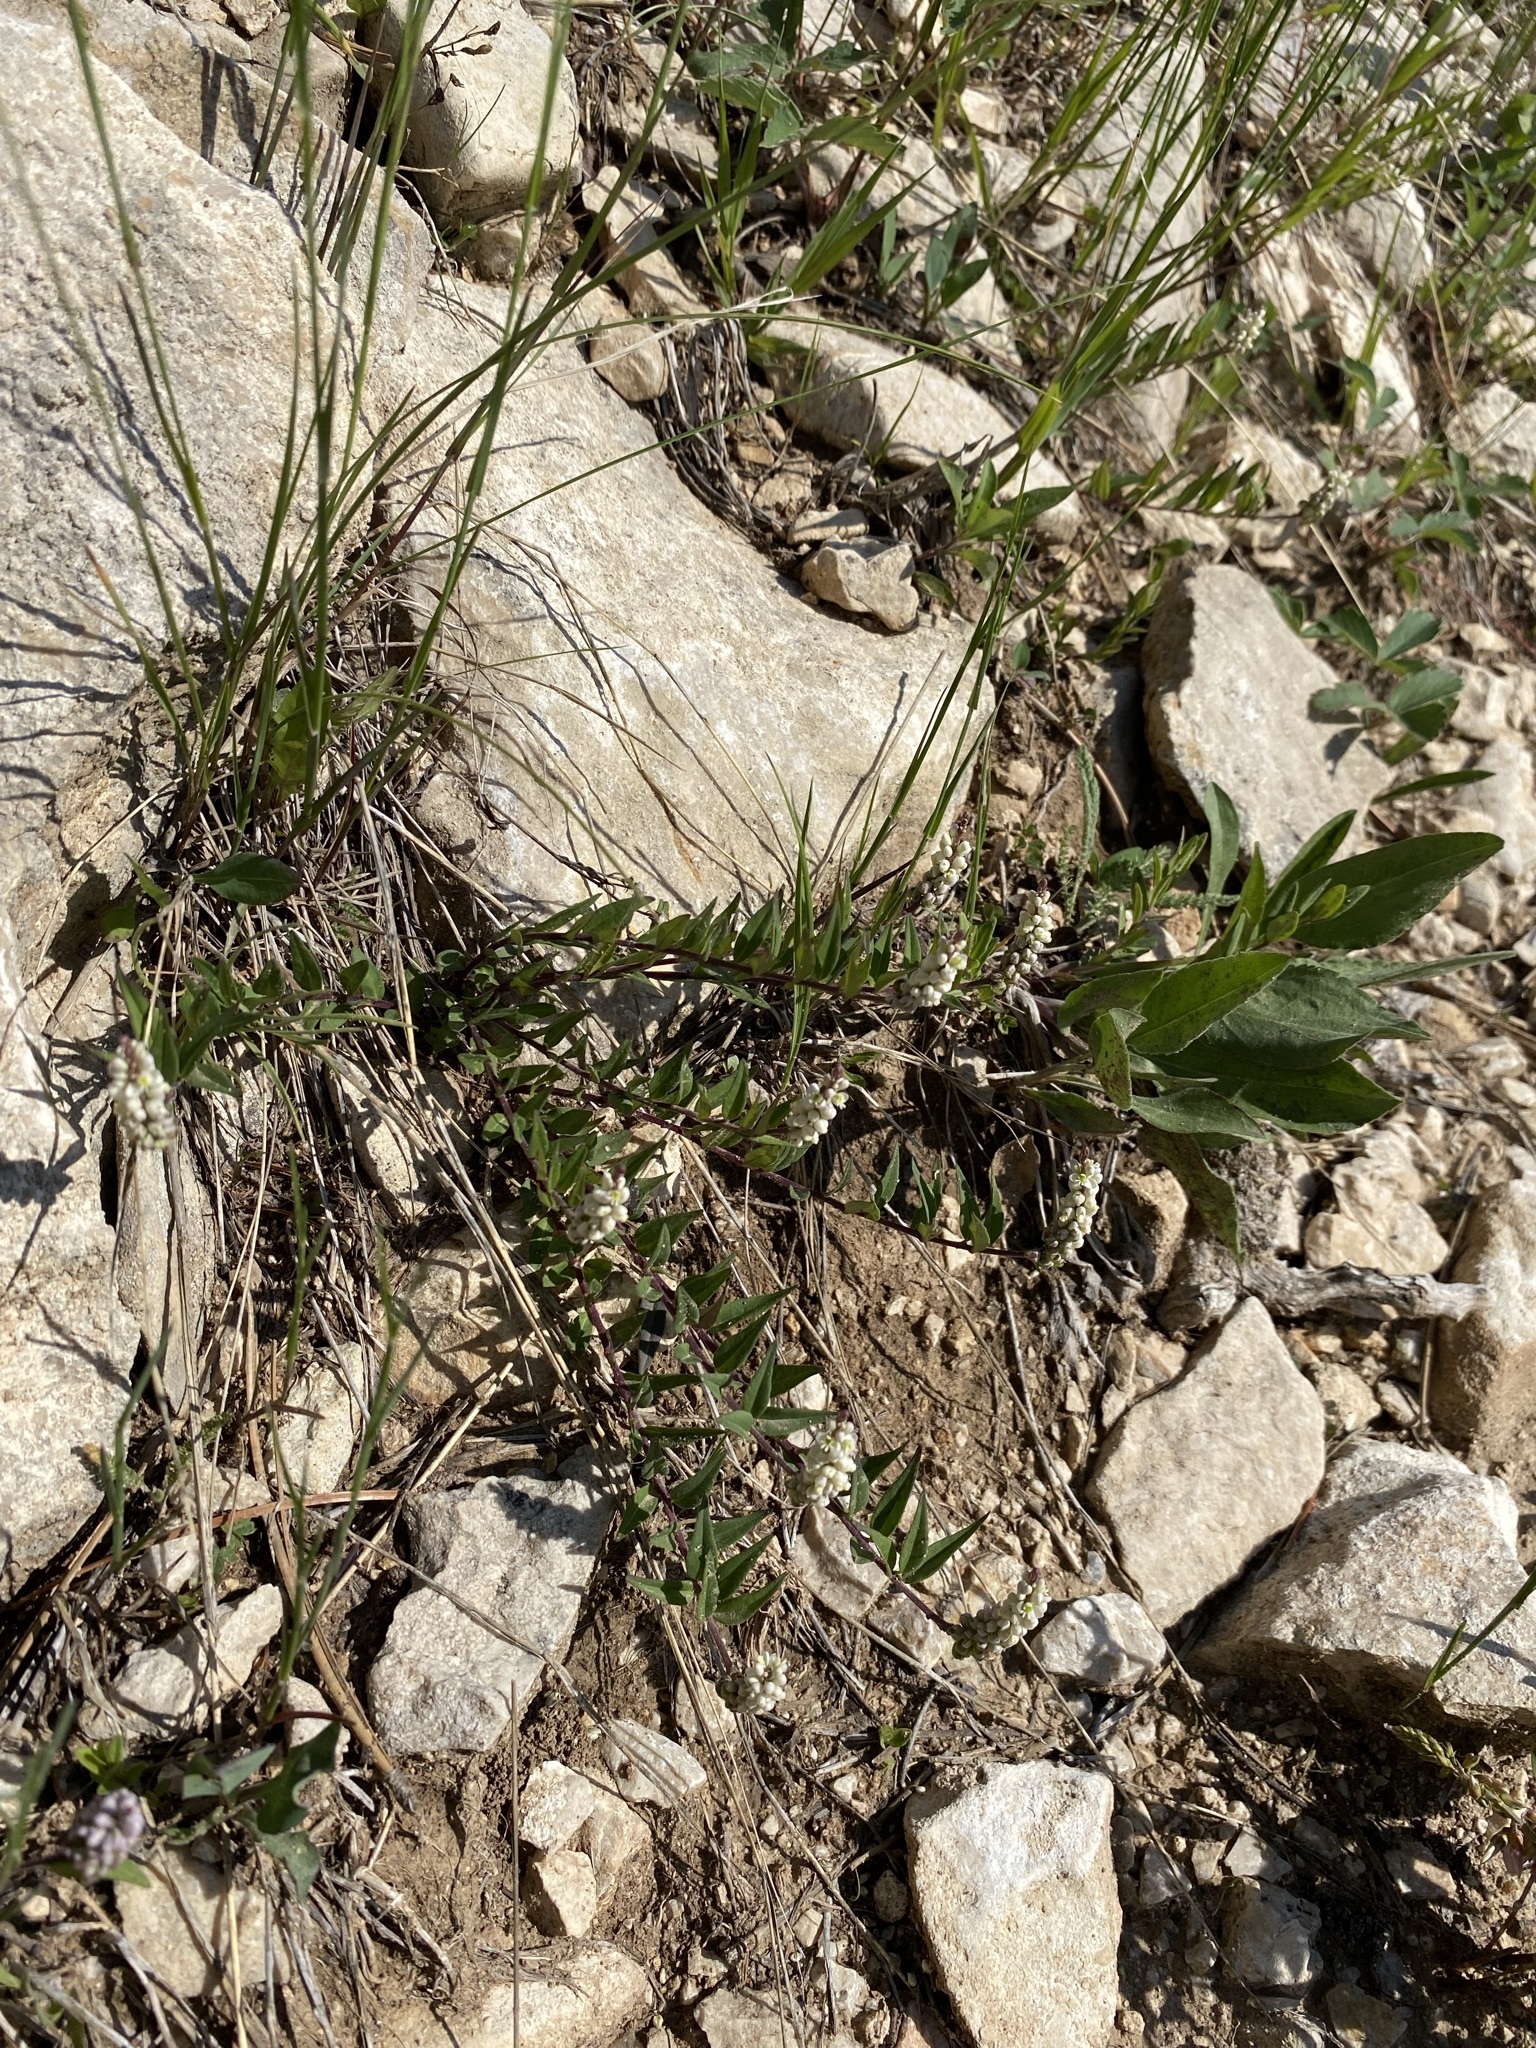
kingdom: Plantae
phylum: Tracheophyta
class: Magnoliopsida
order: Fabales
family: Polygalaceae
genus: Polygala
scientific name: Polygala senega
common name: Seneca snakeroot
